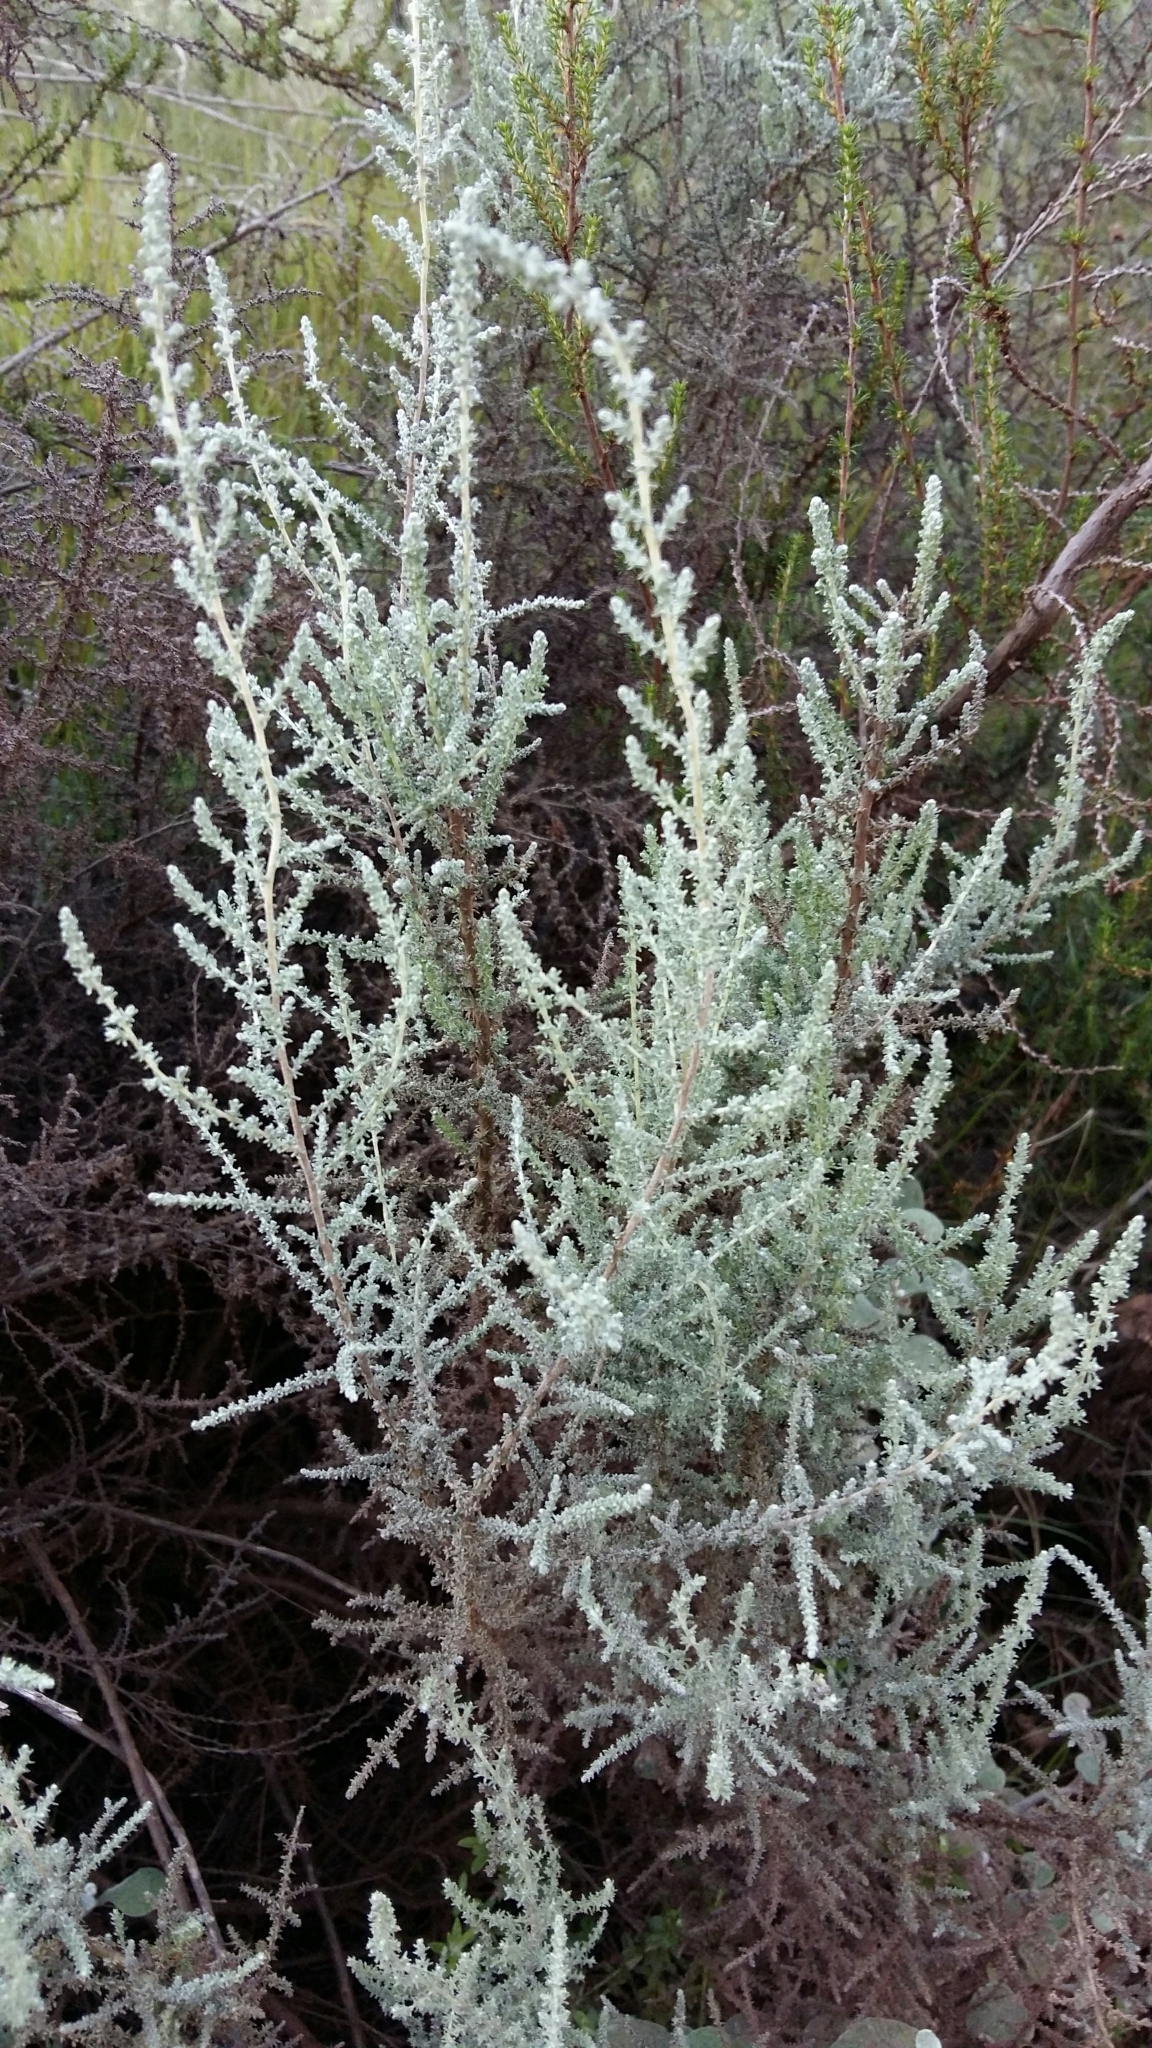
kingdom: Plantae
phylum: Tracheophyta
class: Magnoliopsida
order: Asterales
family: Asteraceae
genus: Seriphium
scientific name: Seriphium plumosum
